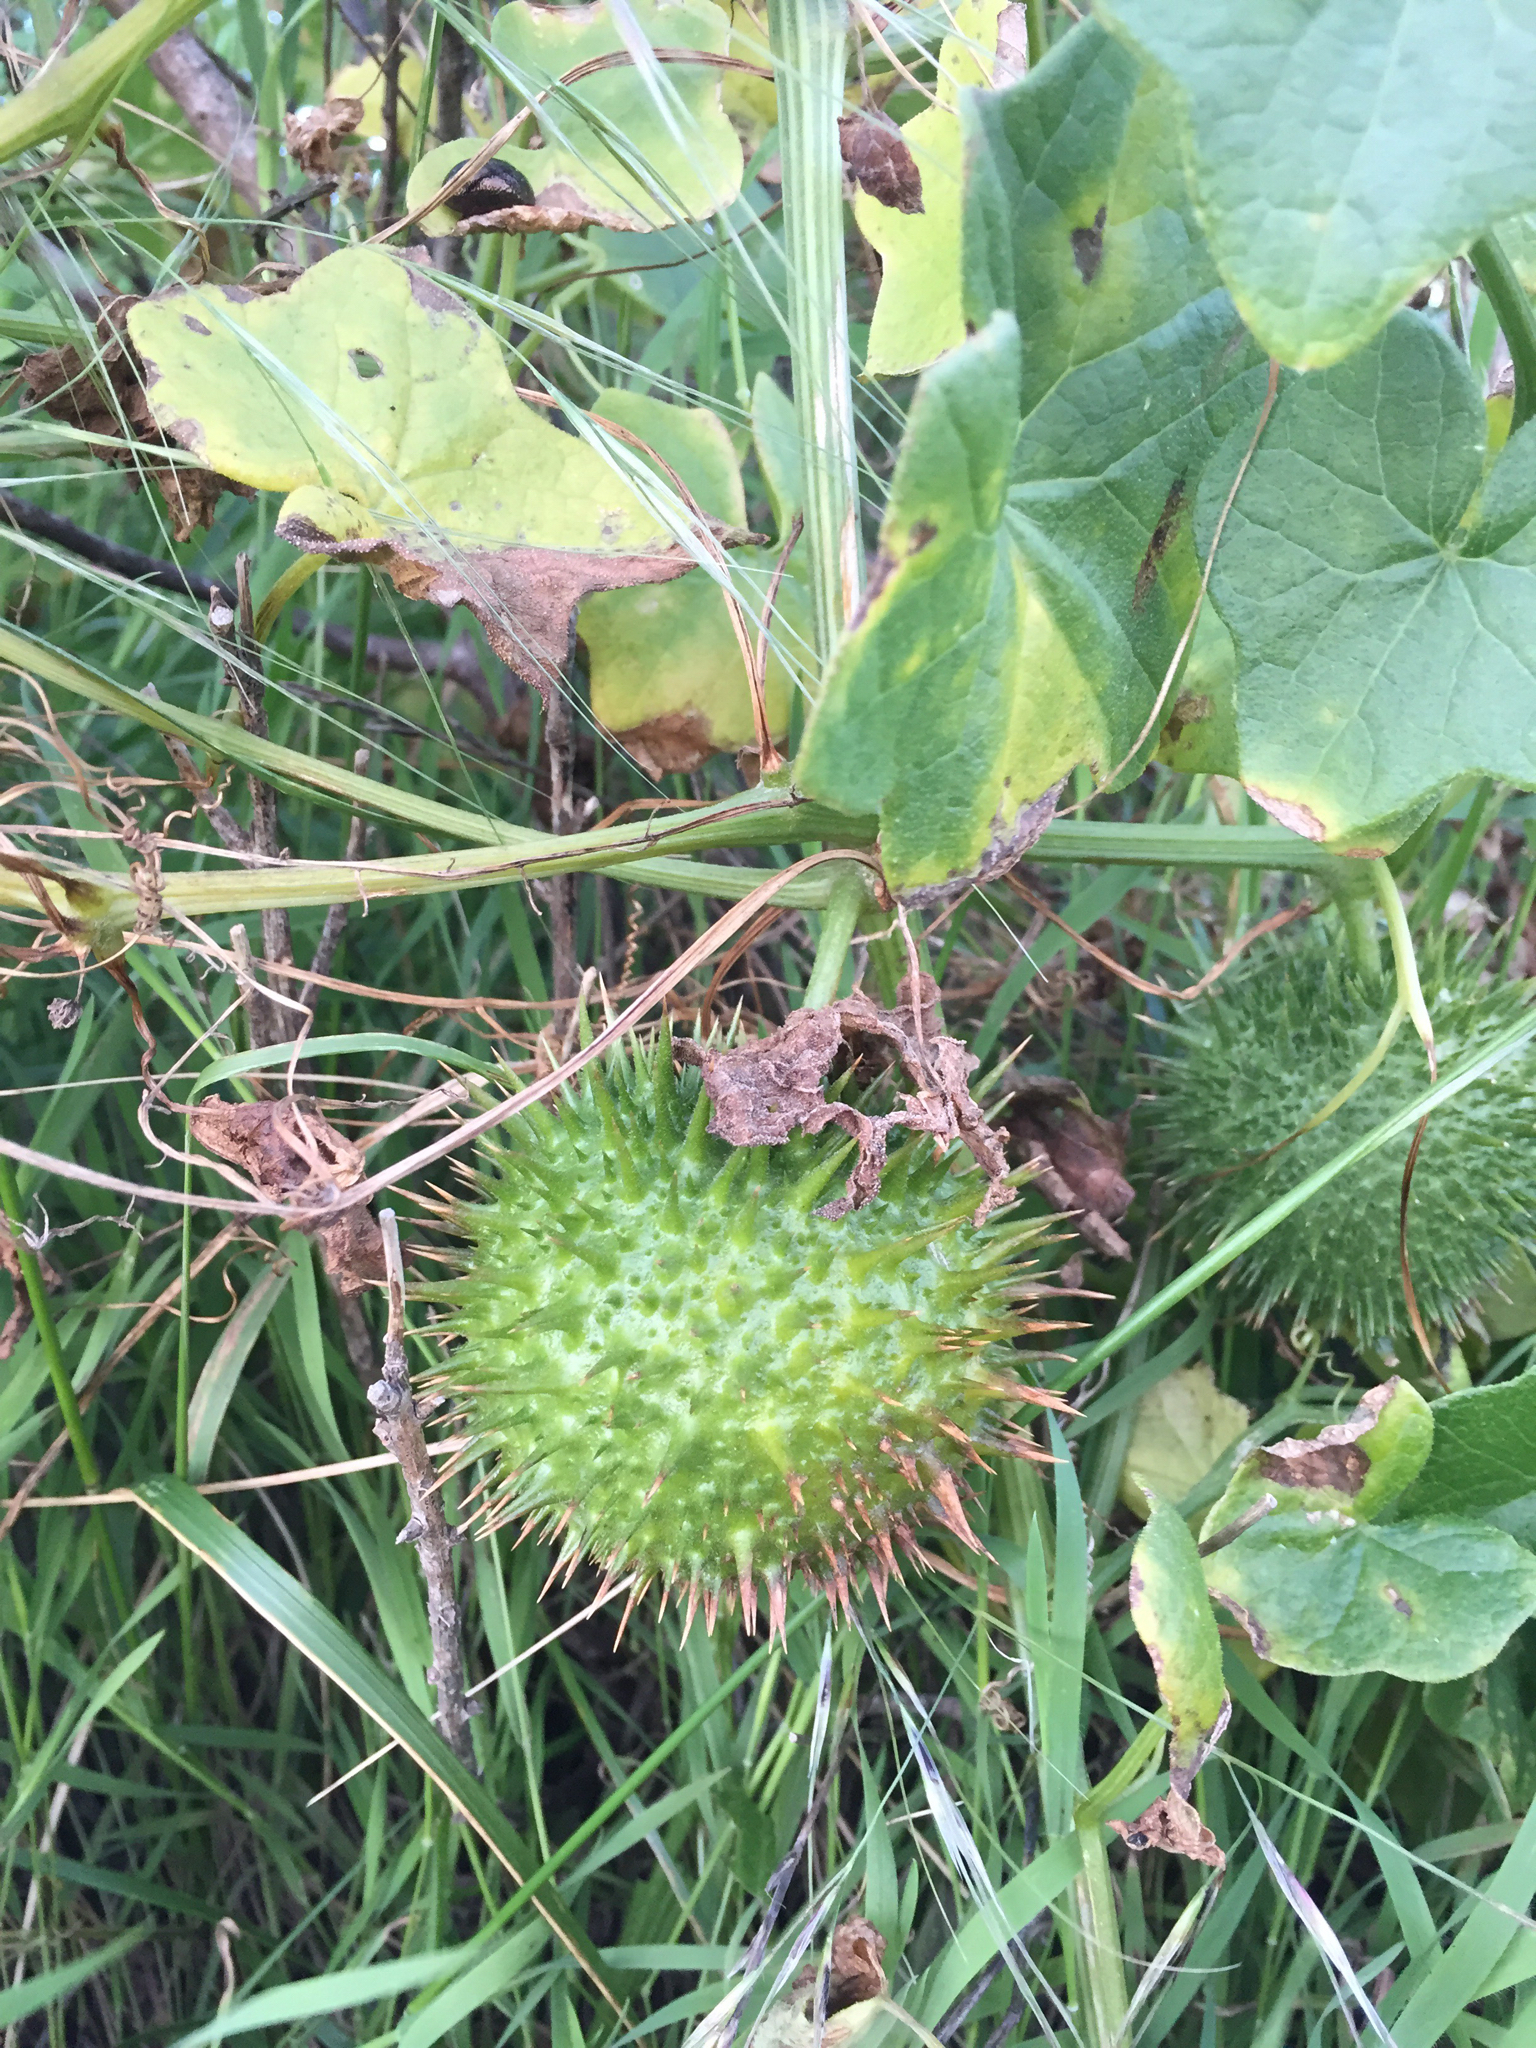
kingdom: Plantae
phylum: Tracheophyta
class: Magnoliopsida
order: Cucurbitales
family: Cucurbitaceae
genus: Marah
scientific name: Marah fabacea
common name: California manroot
